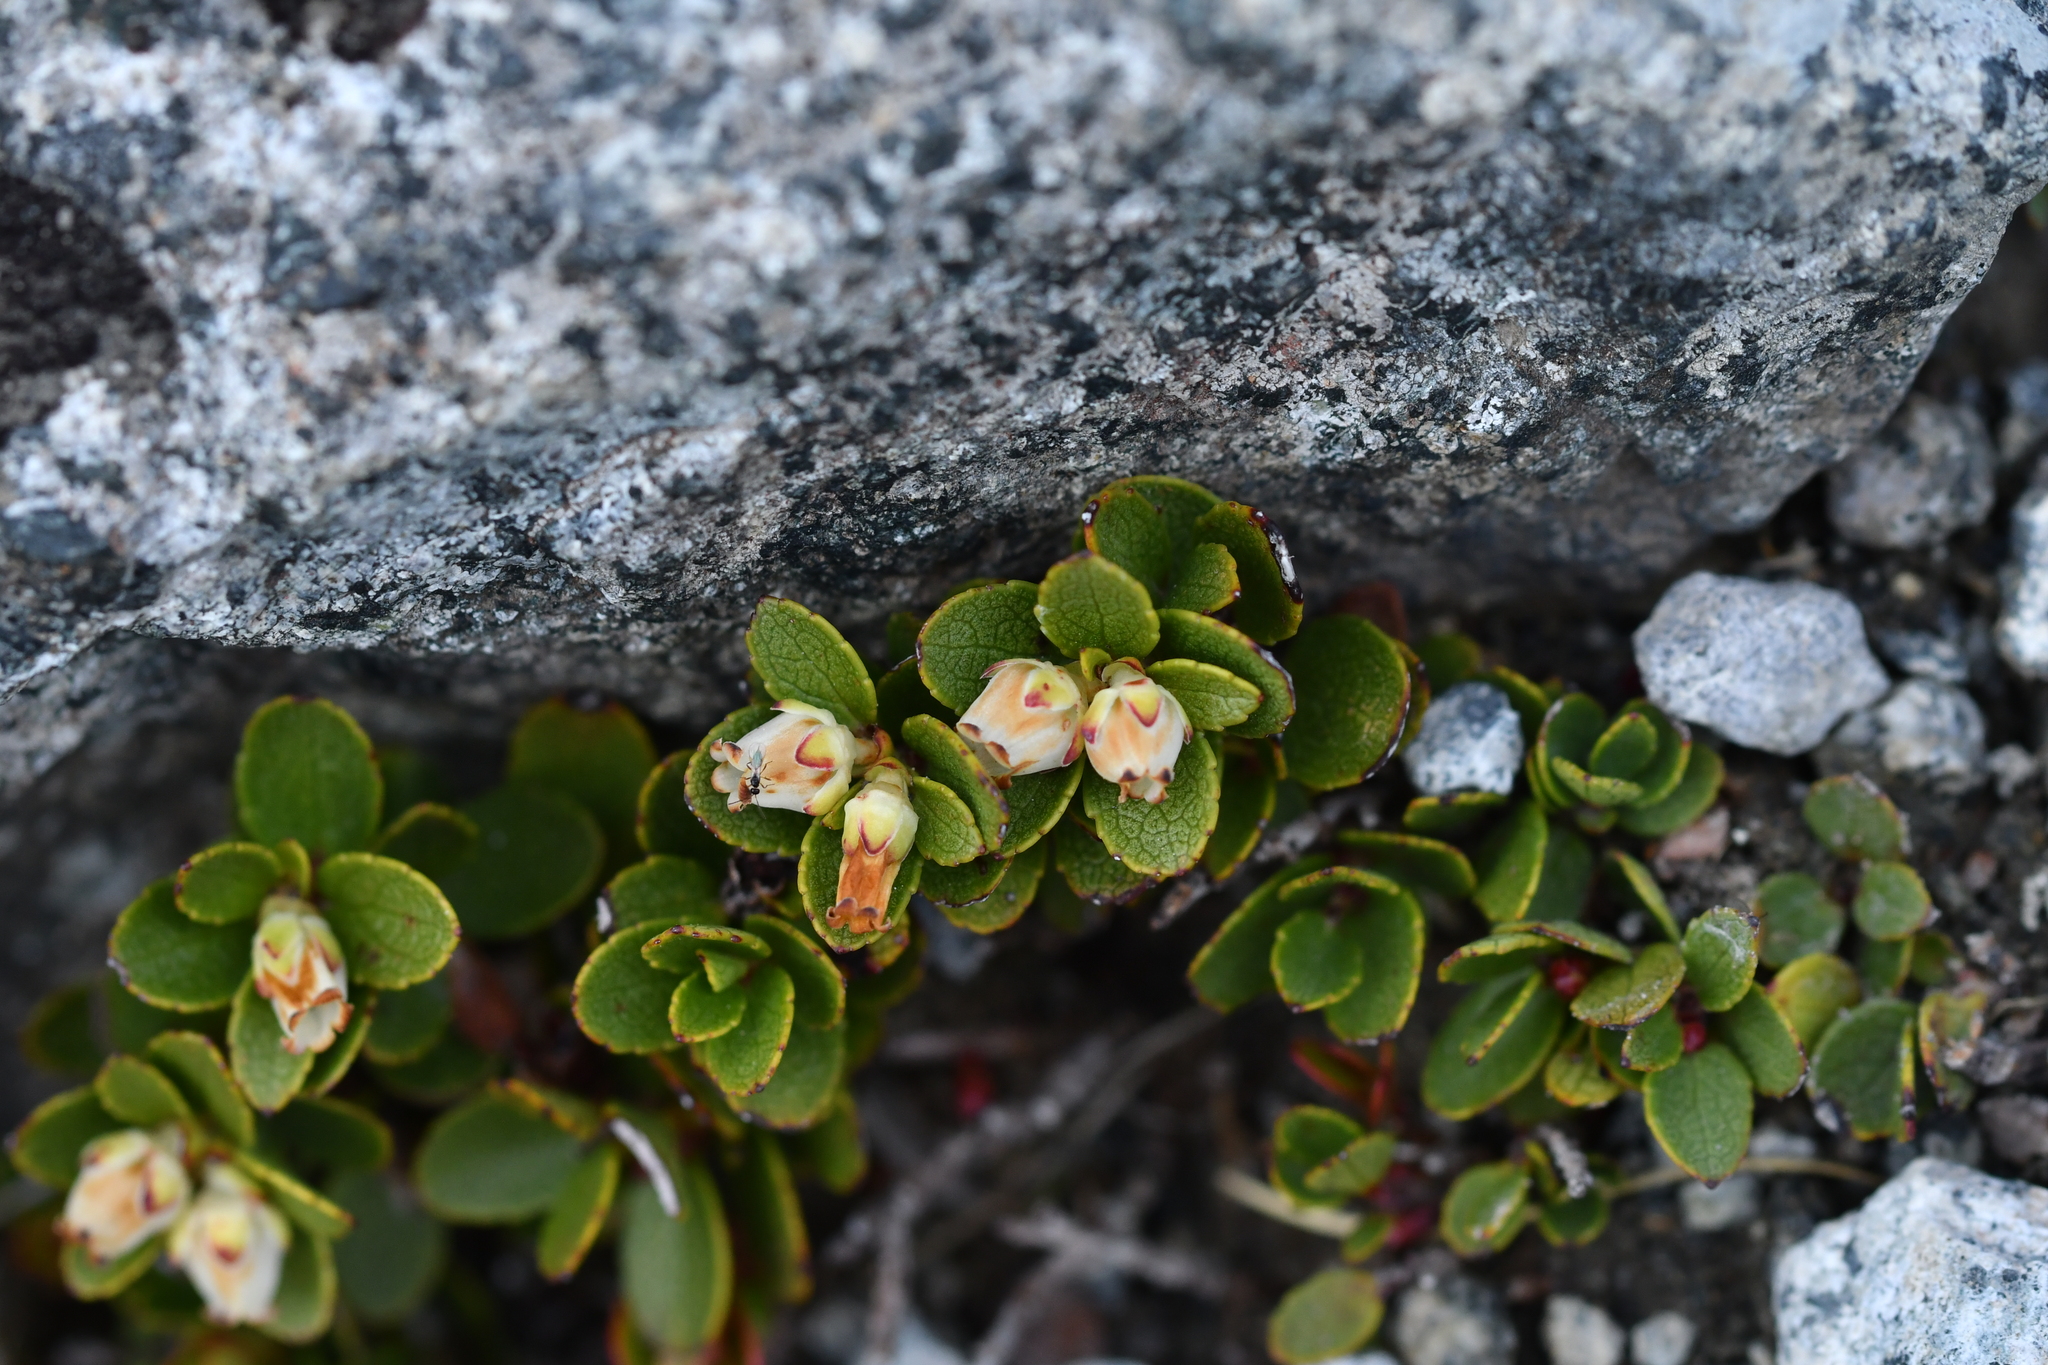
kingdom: Plantae
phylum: Tracheophyta
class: Magnoliopsida
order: Ericales
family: Ericaceae
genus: Gaultheria
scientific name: Gaultheria crassa
